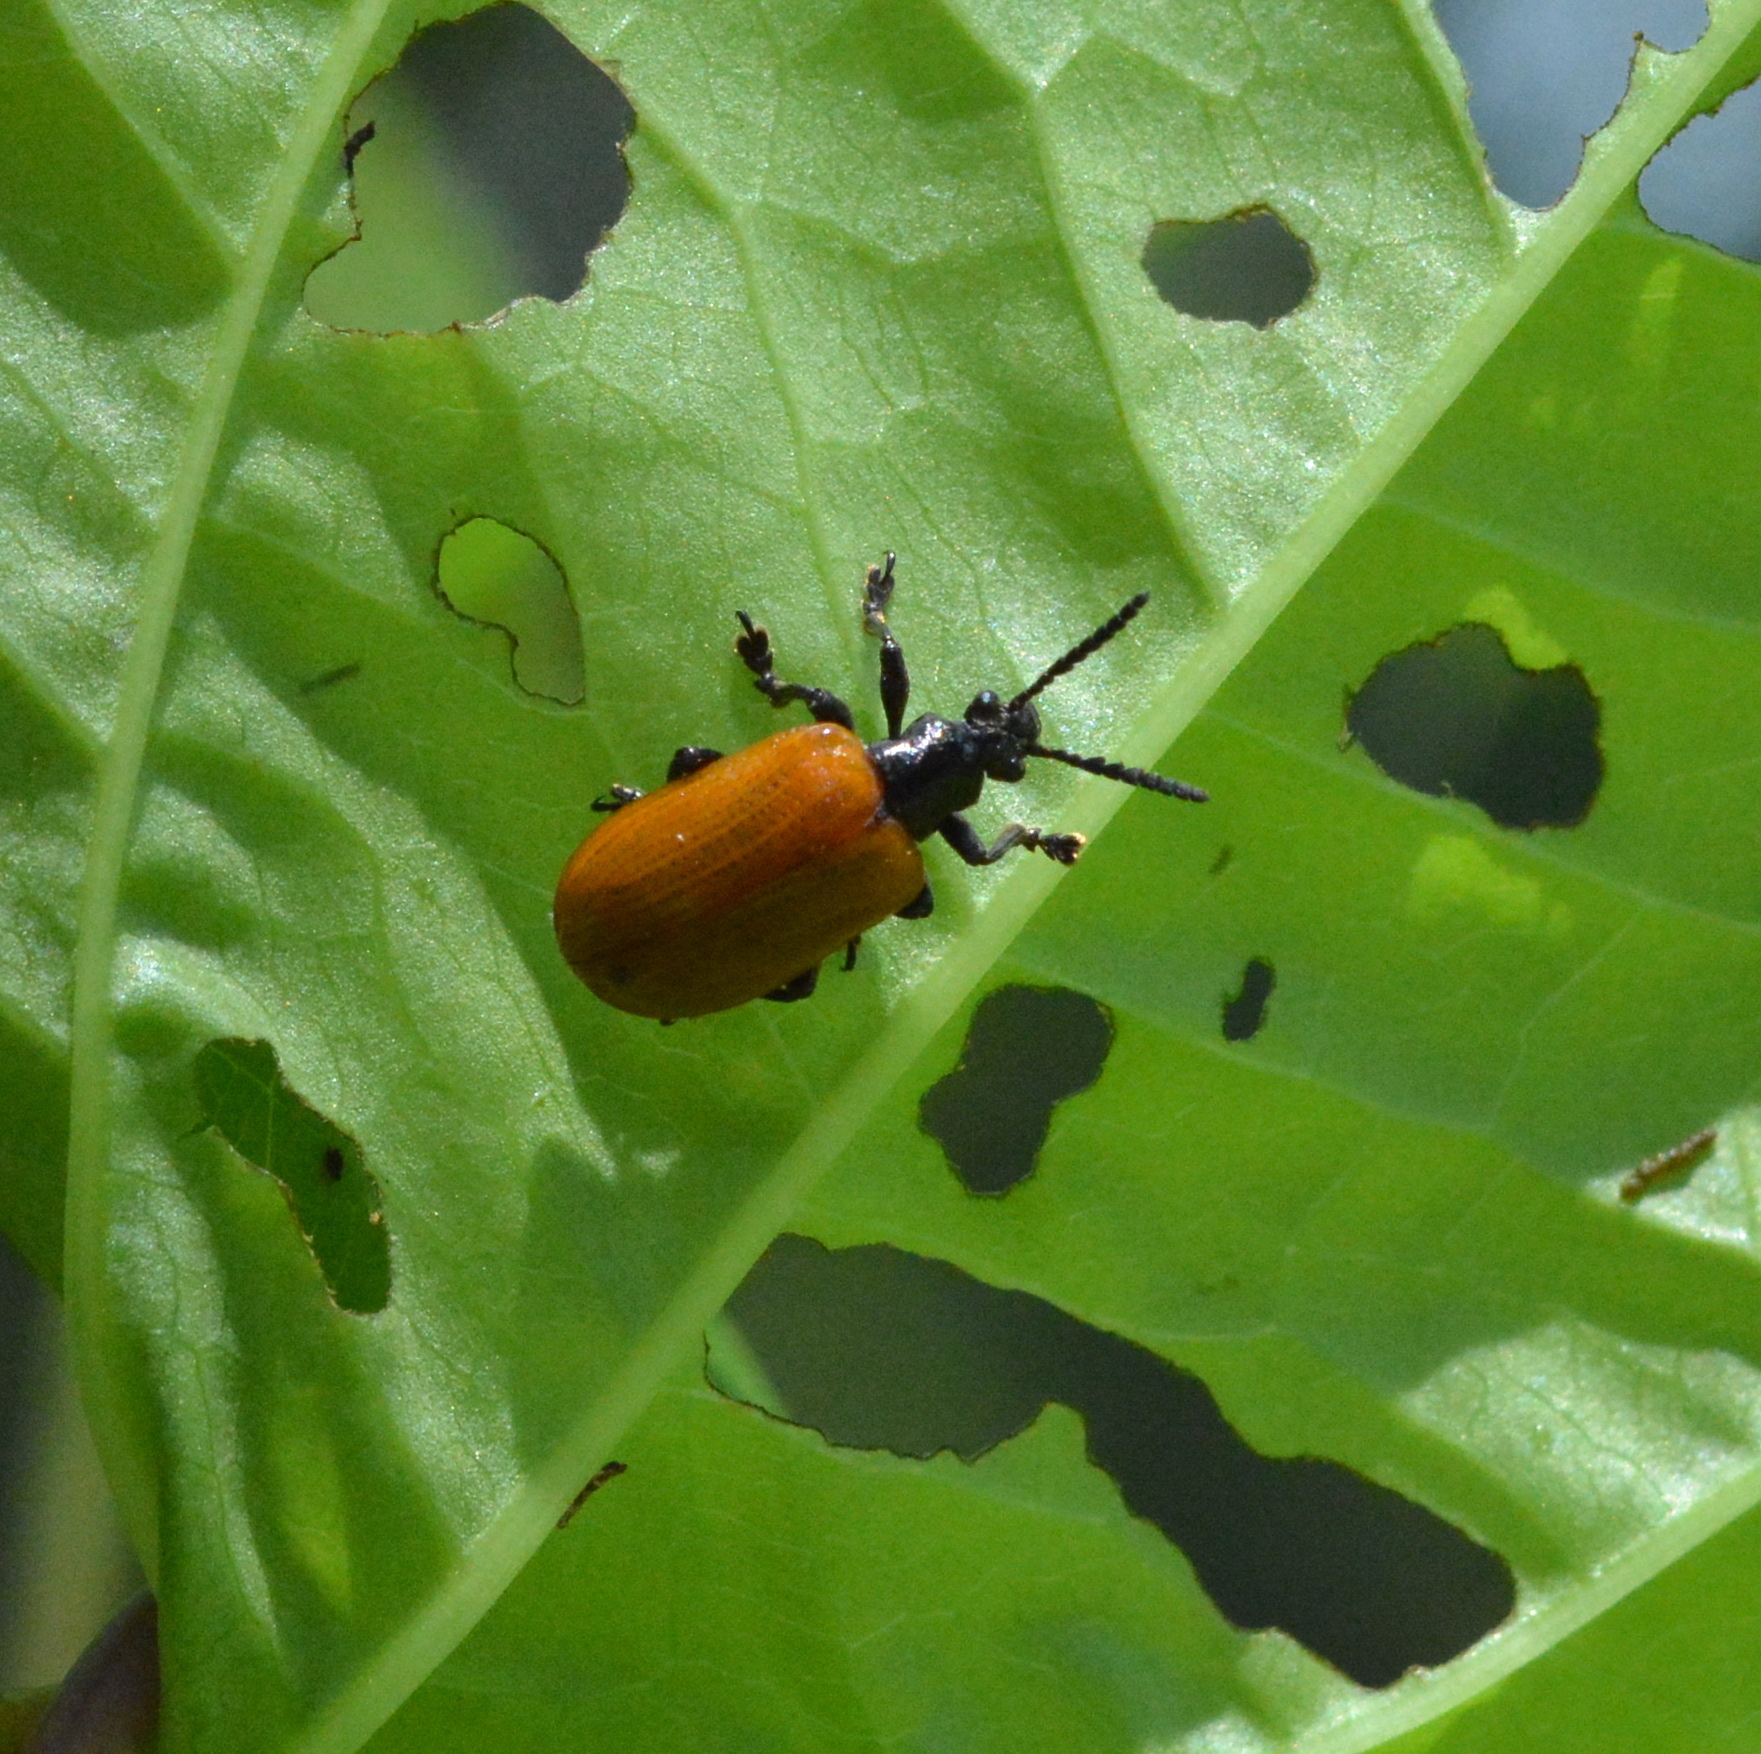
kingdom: Animalia
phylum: Arthropoda
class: Insecta
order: Coleoptera
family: Chrysomelidae
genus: Lilioceris
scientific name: Lilioceris cheni
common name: Leaf beetle
